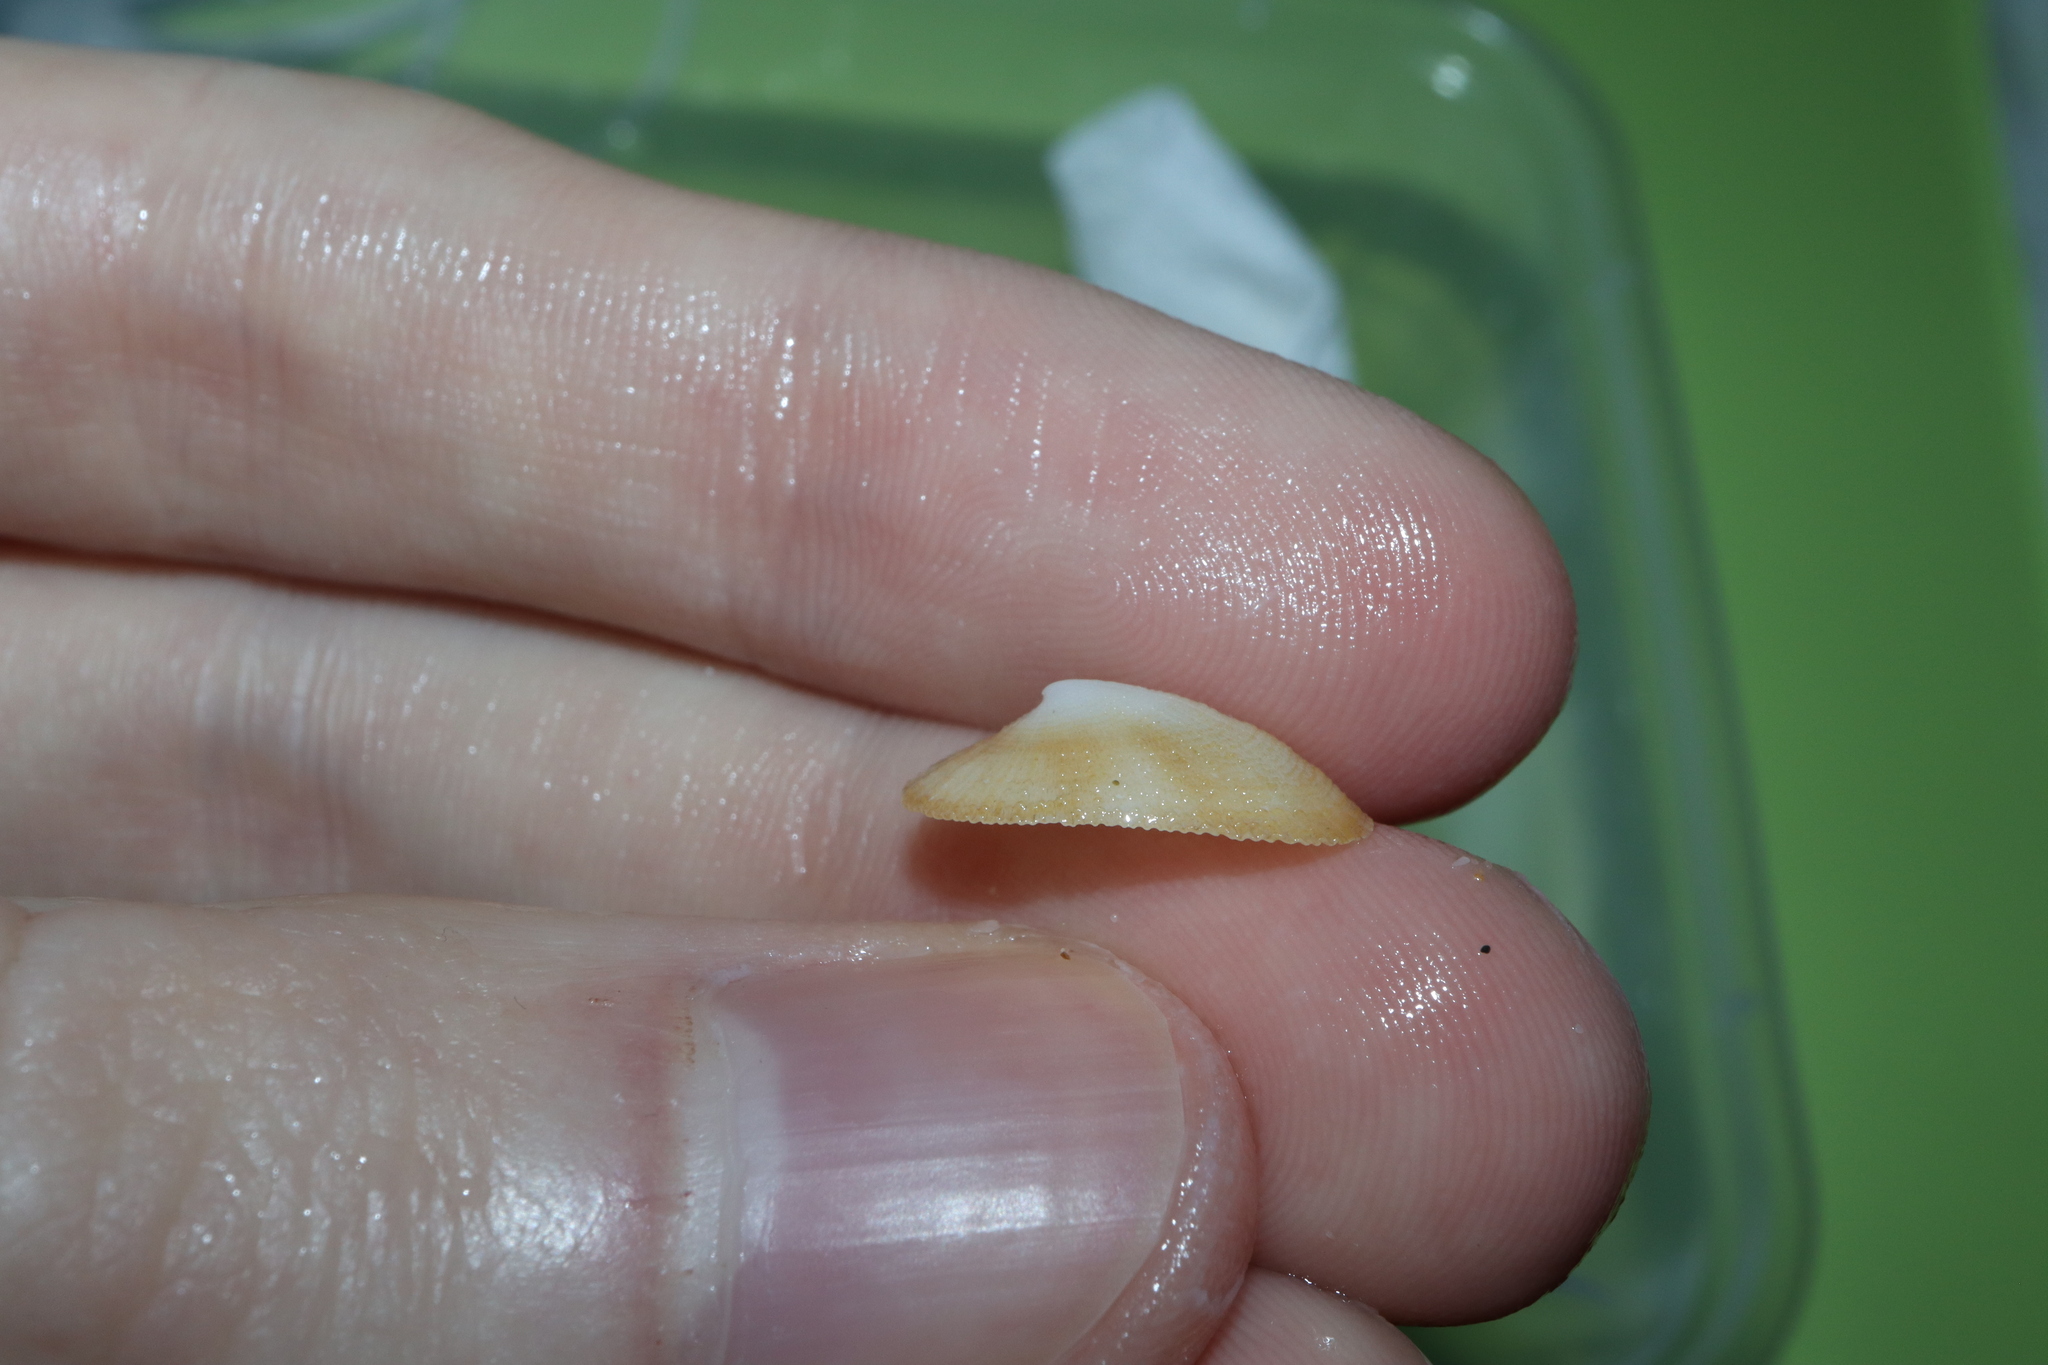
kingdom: Animalia
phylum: Mollusca
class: Gastropoda
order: Lepetellida
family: Fissurellidae
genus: Tugali
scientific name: Tugali parmophoidea
